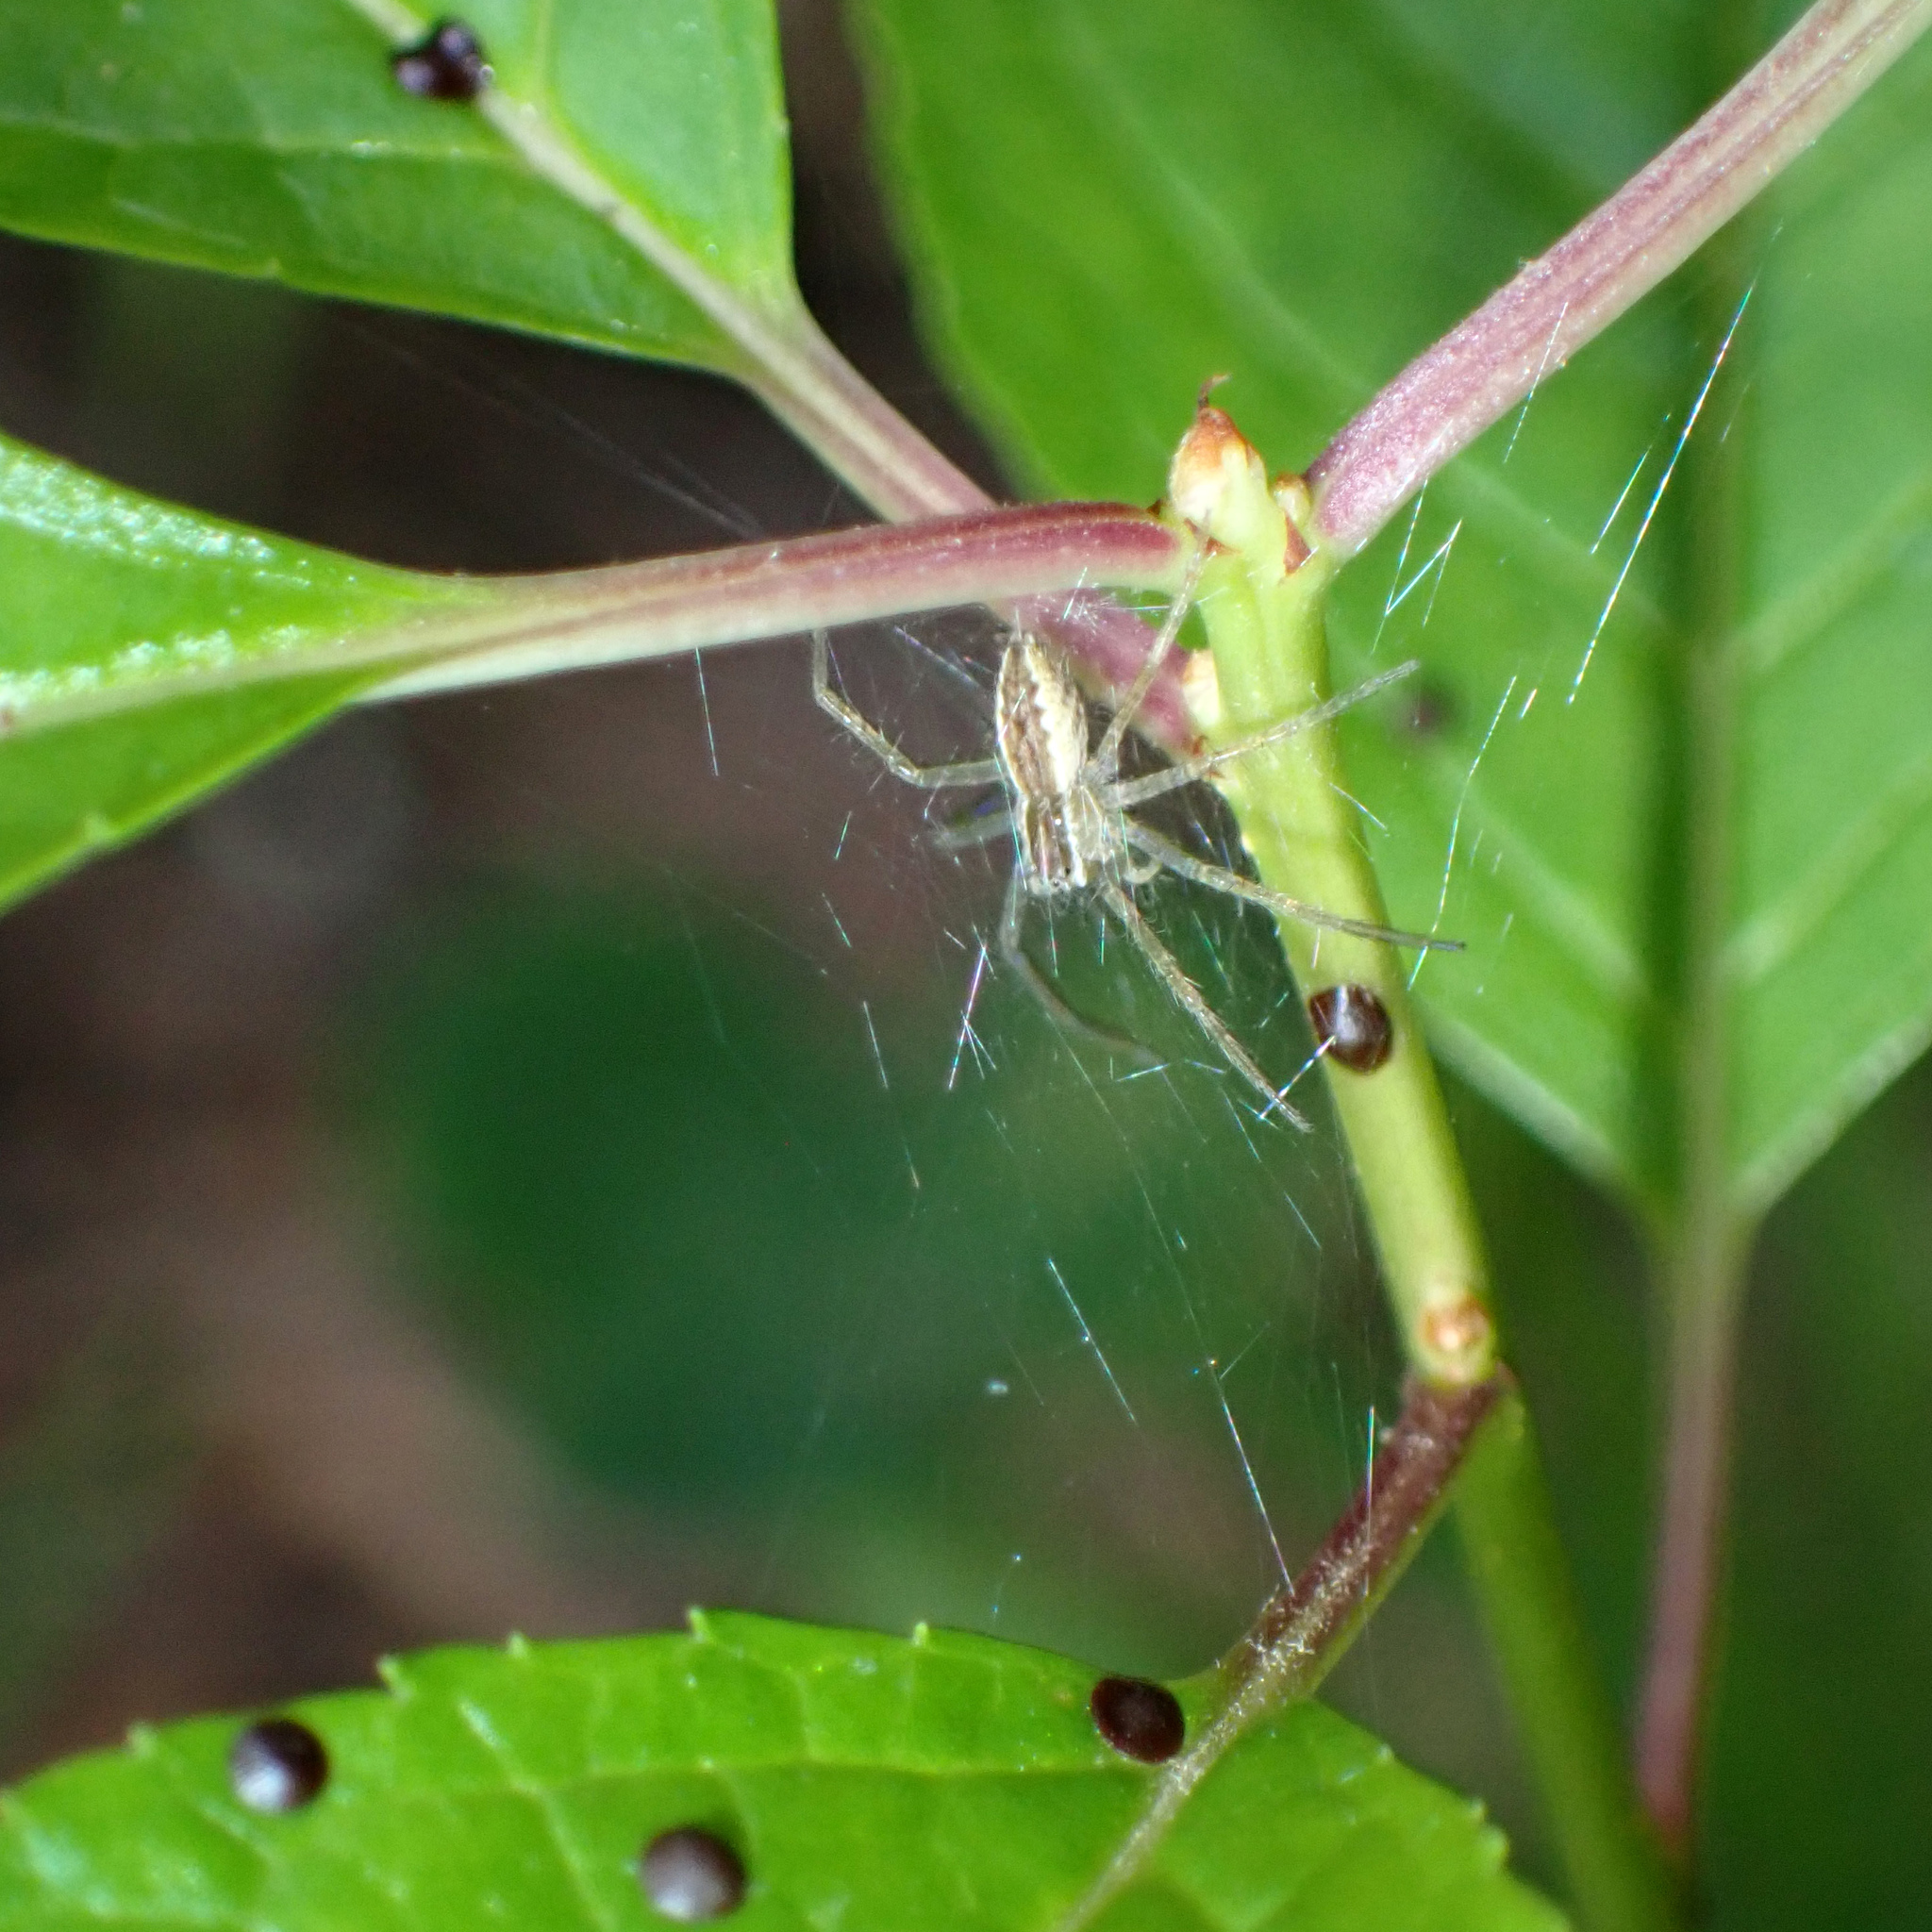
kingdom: Animalia
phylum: Arthropoda
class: Arachnida
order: Araneae
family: Pisauridae
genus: Pisaurina
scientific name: Pisaurina mira
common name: American nursery web spider
